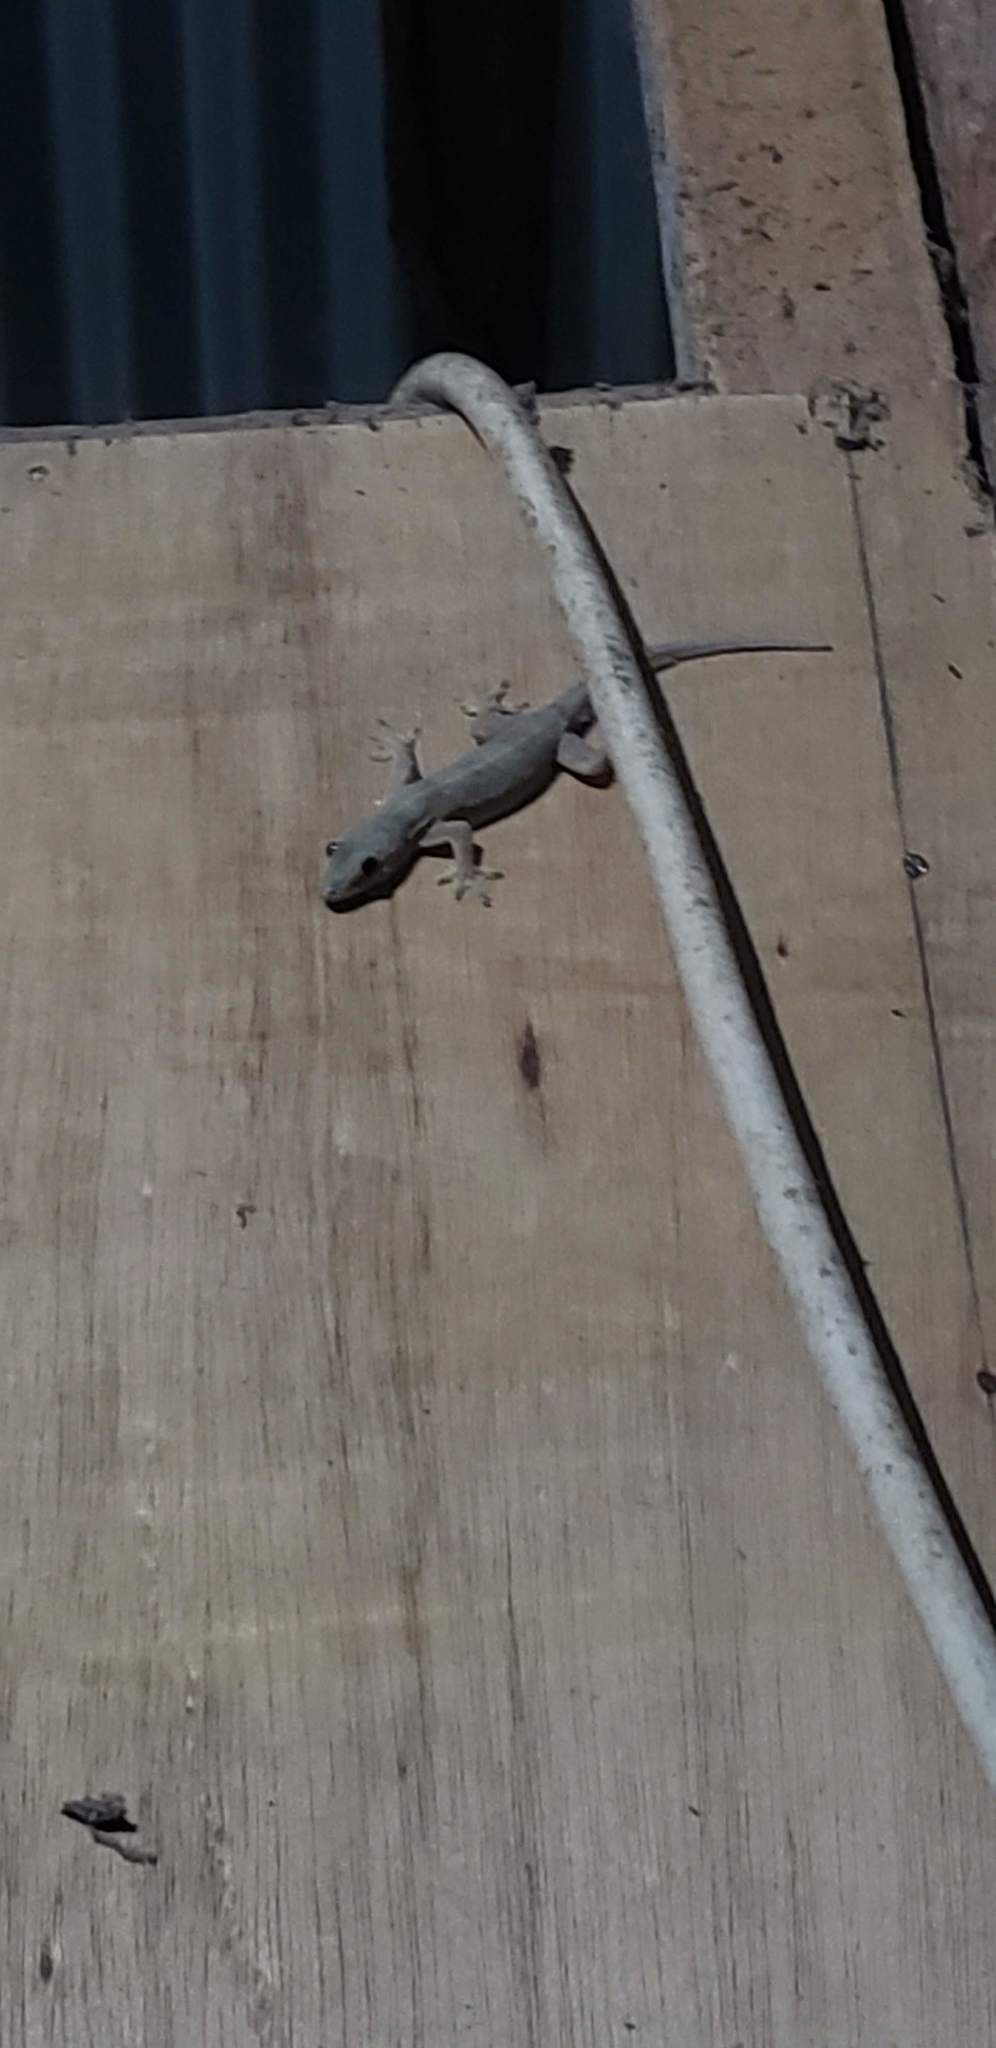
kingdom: Animalia
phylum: Chordata
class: Squamata
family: Gekkonidae
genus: Hemidactylus
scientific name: Hemidactylus platyurus
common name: Flat-tailed house gecko
